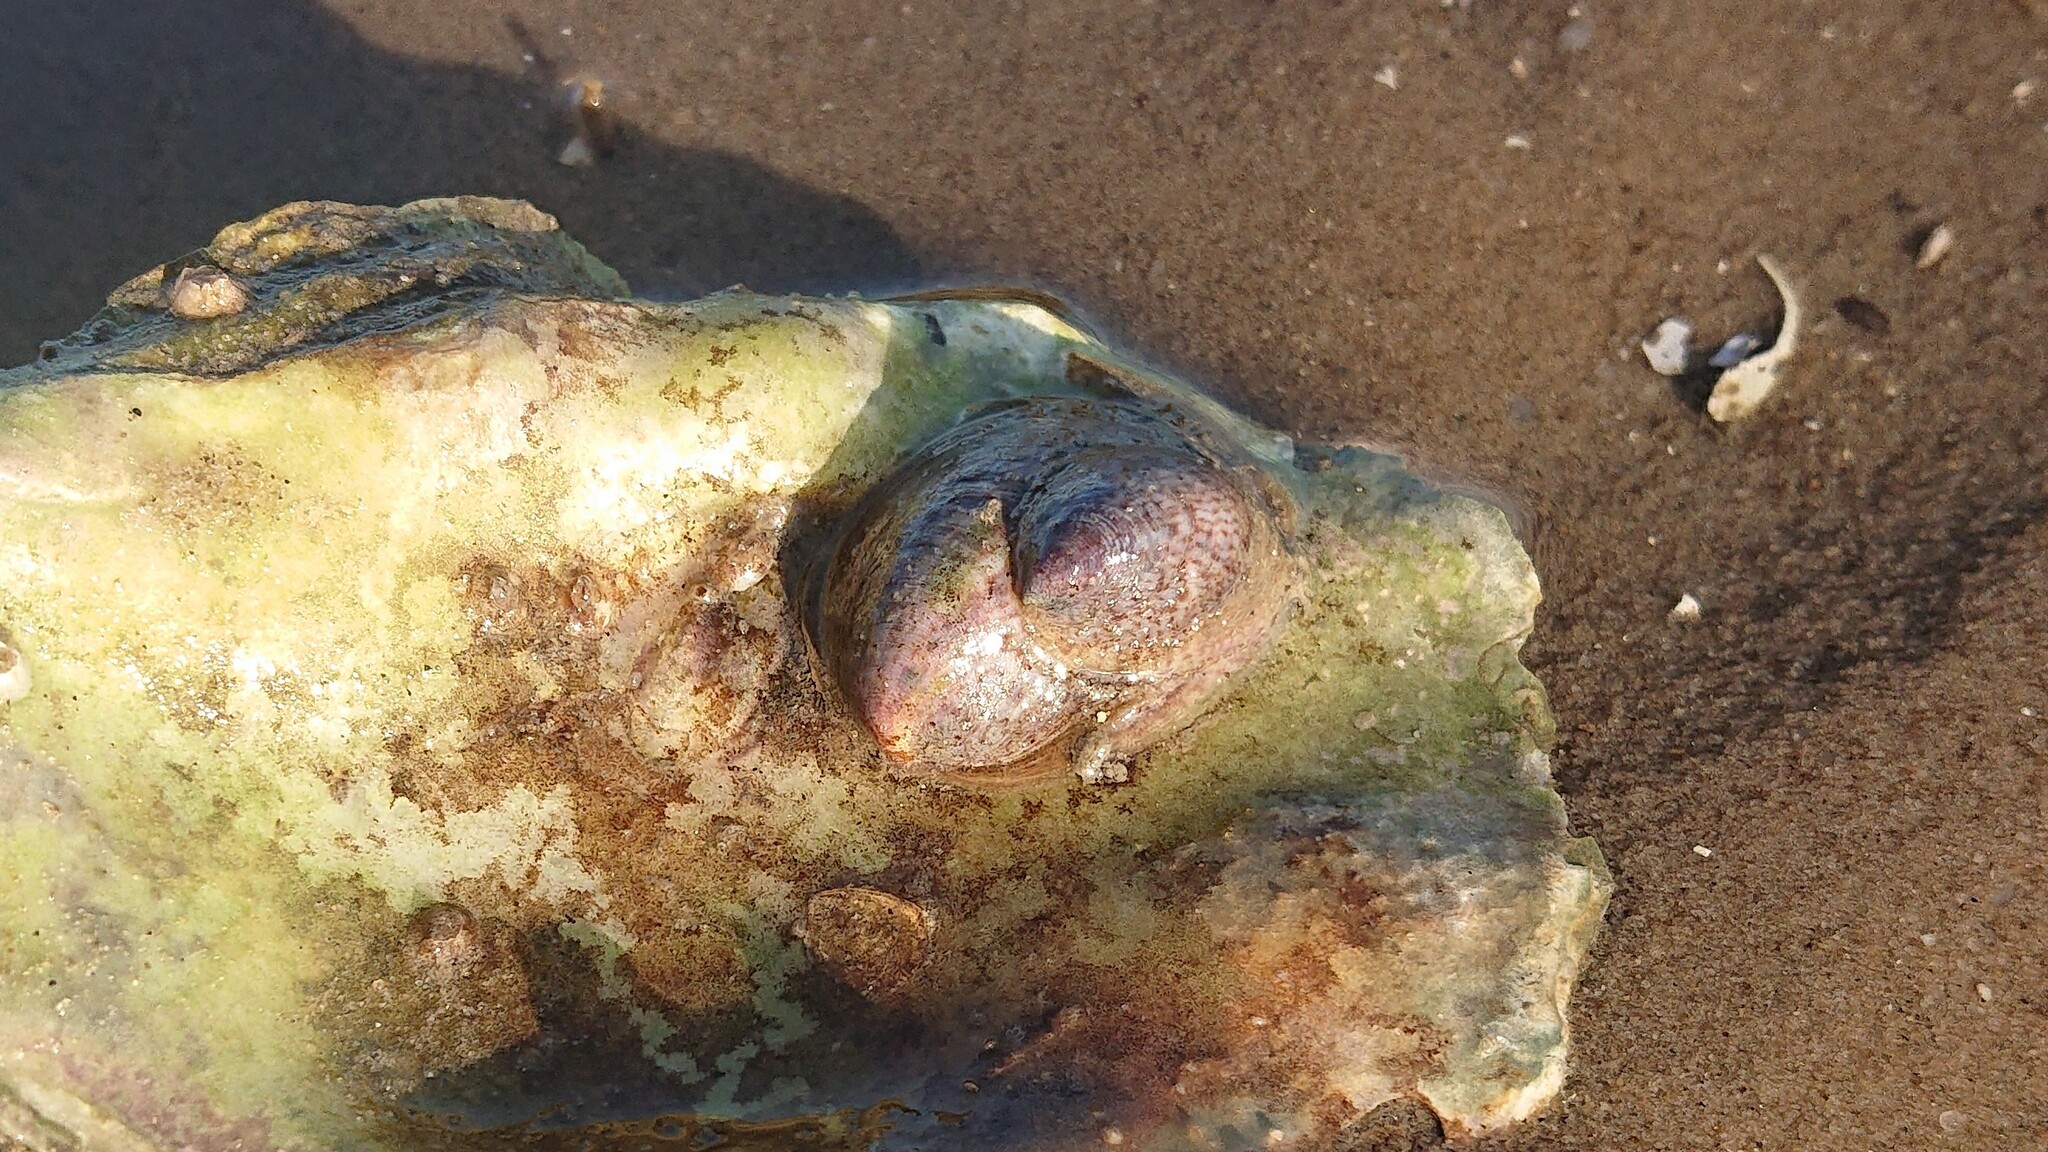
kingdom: Animalia
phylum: Mollusca
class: Gastropoda
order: Littorinimorpha
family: Calyptraeidae
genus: Crepidula
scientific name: Crepidula fornicata
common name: Slipper limpet
